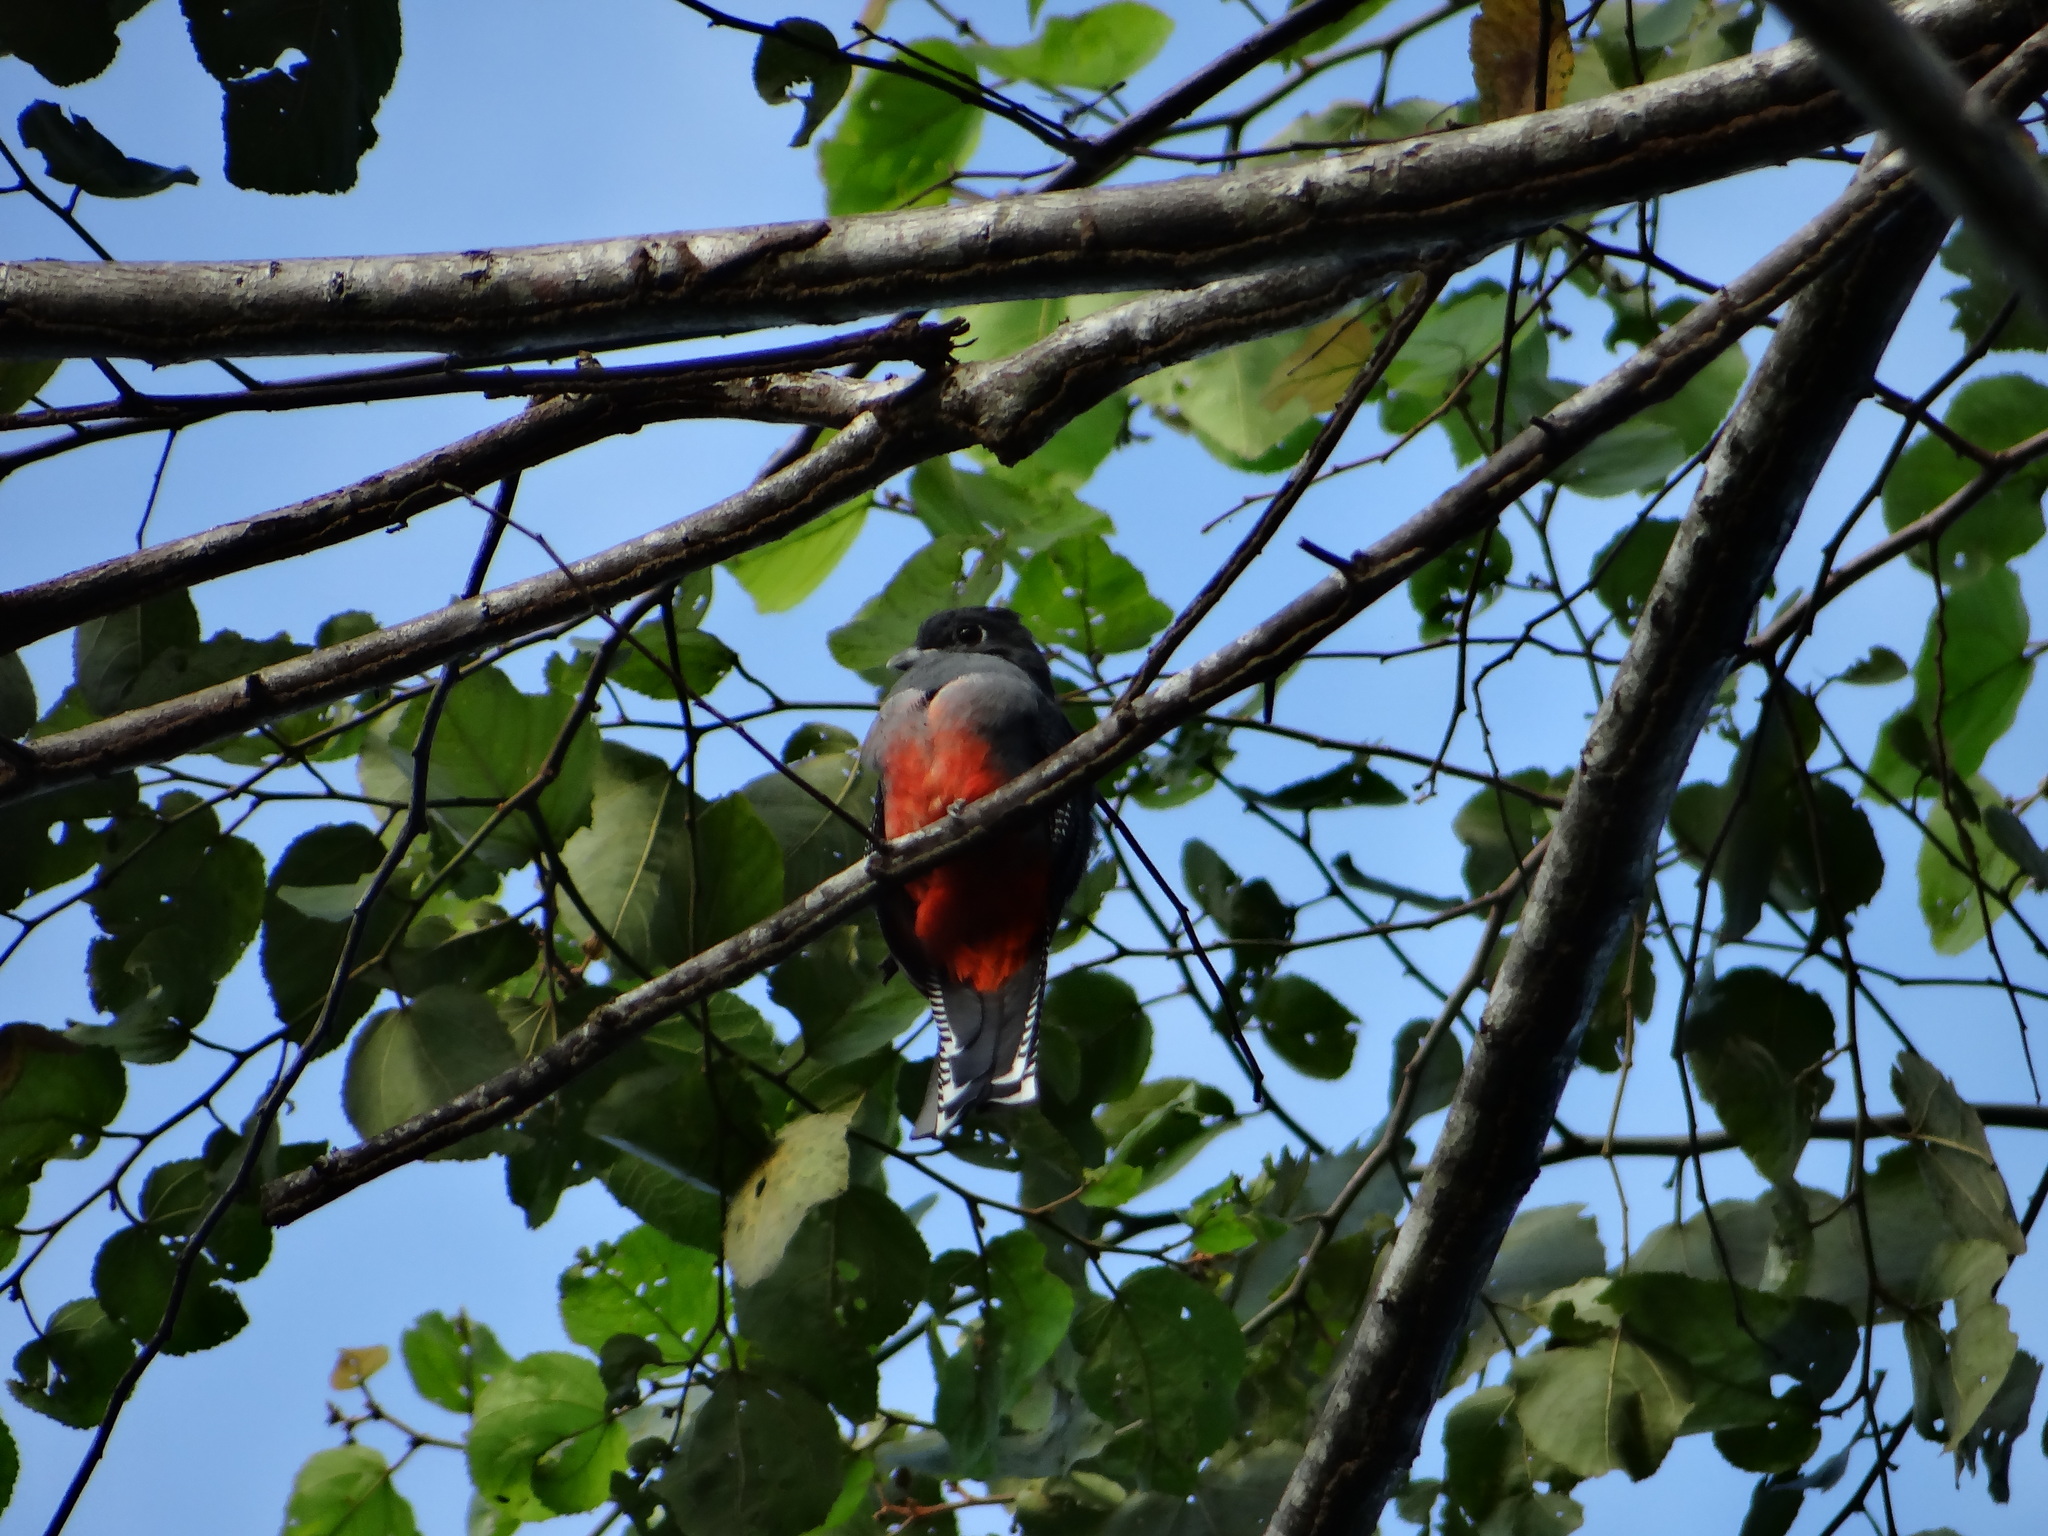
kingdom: Animalia
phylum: Chordata
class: Aves
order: Trogoniformes
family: Trogonidae
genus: Trogon
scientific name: Trogon curucui
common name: Blue-crowned trogon
